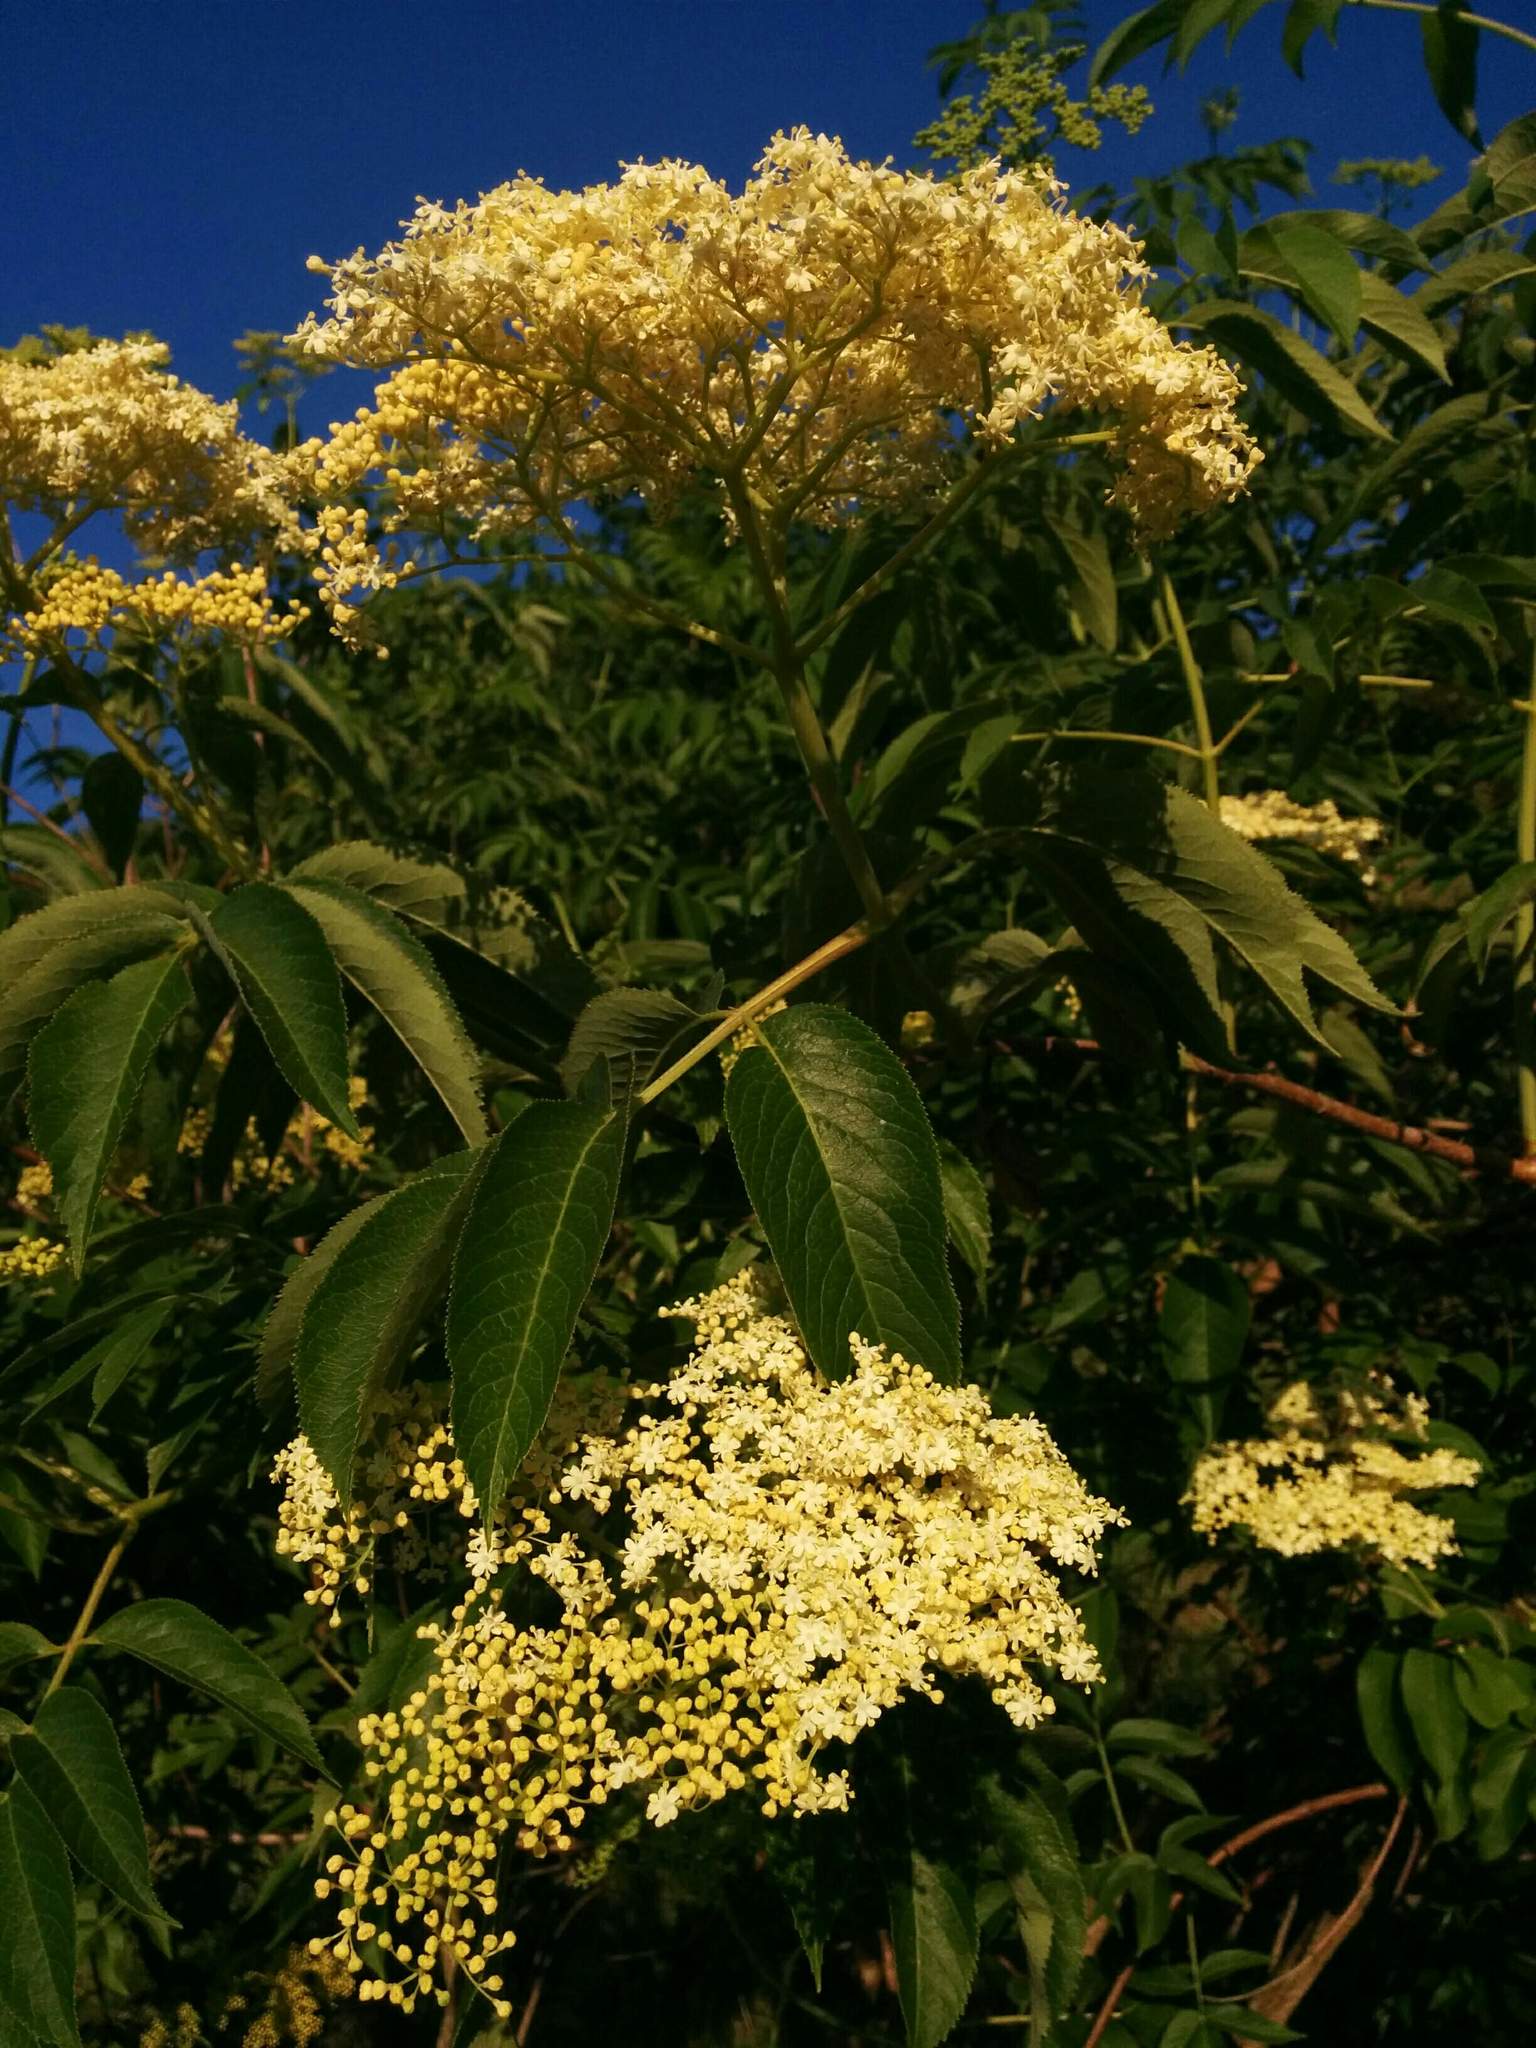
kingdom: Plantae
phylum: Tracheophyta
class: Magnoliopsida
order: Dipsacales
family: Viburnaceae
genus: Sambucus
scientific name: Sambucus cerulea
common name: Blue elder
